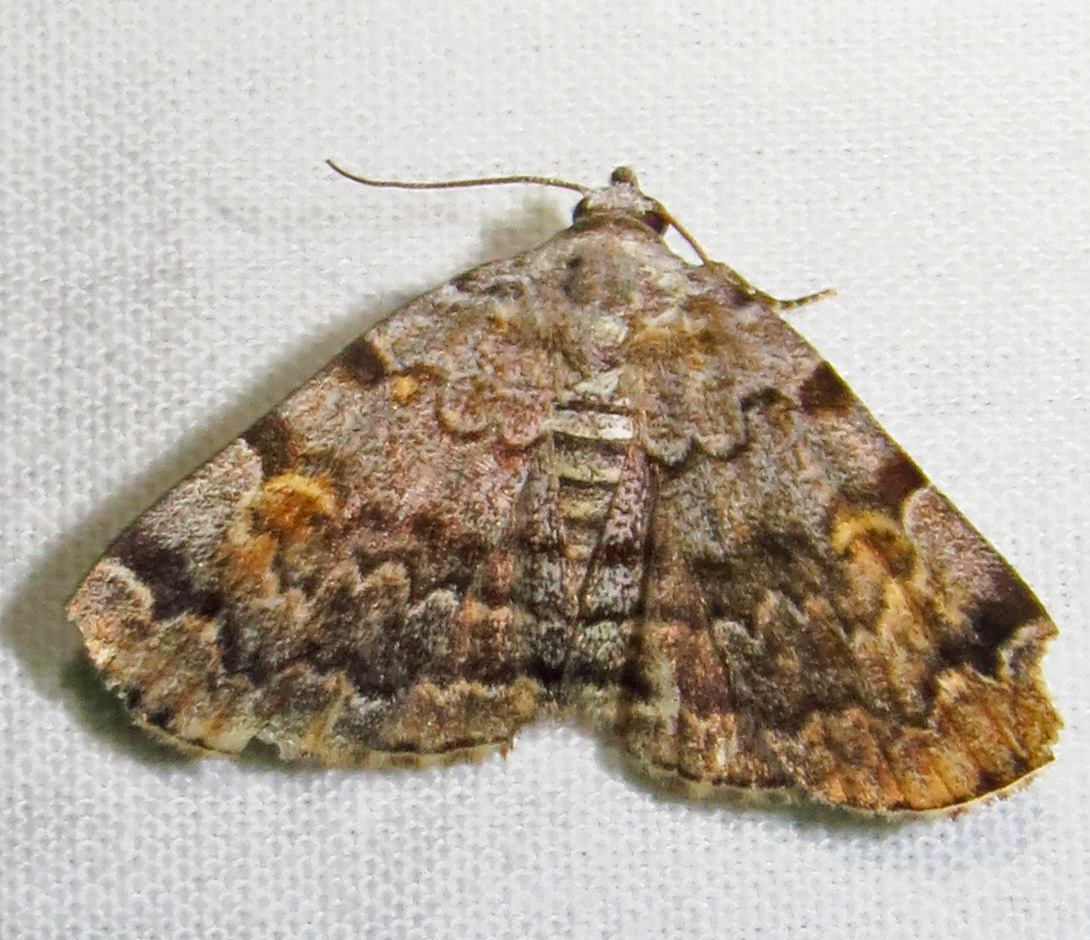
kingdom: Animalia
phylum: Arthropoda
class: Insecta
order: Lepidoptera
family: Erebidae
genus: Idia
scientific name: Idia americalis
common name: American idia moth
